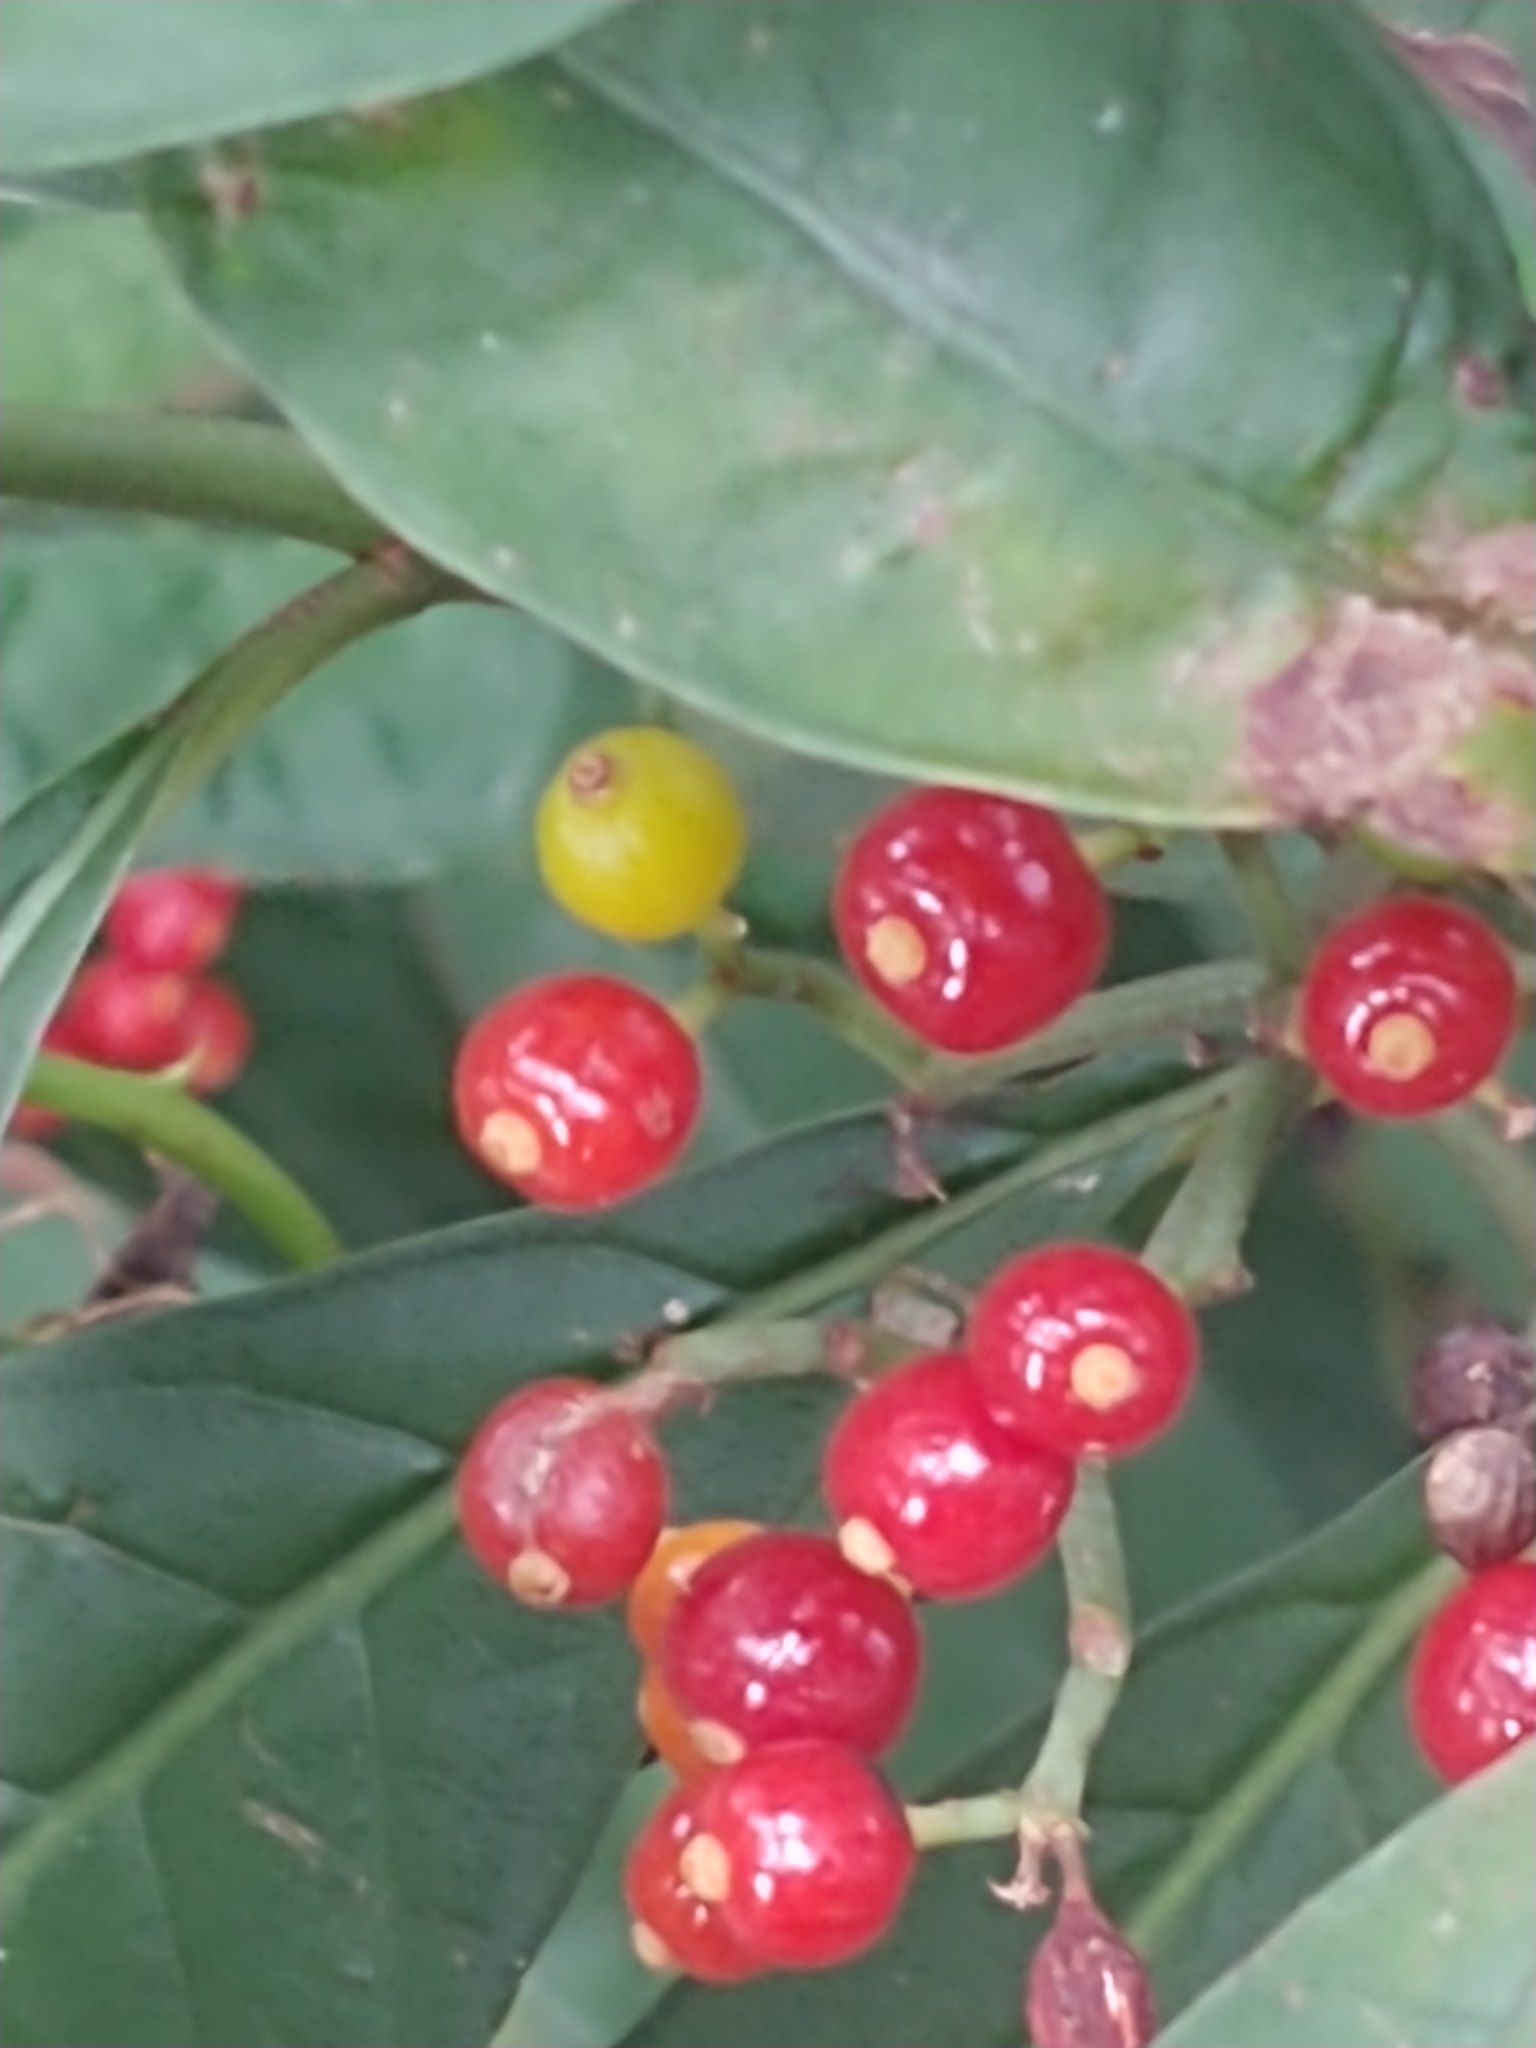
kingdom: Plantae
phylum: Tracheophyta
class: Magnoliopsida
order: Gentianales
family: Rubiaceae
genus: Psychotria
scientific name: Psychotria tenuifolia
